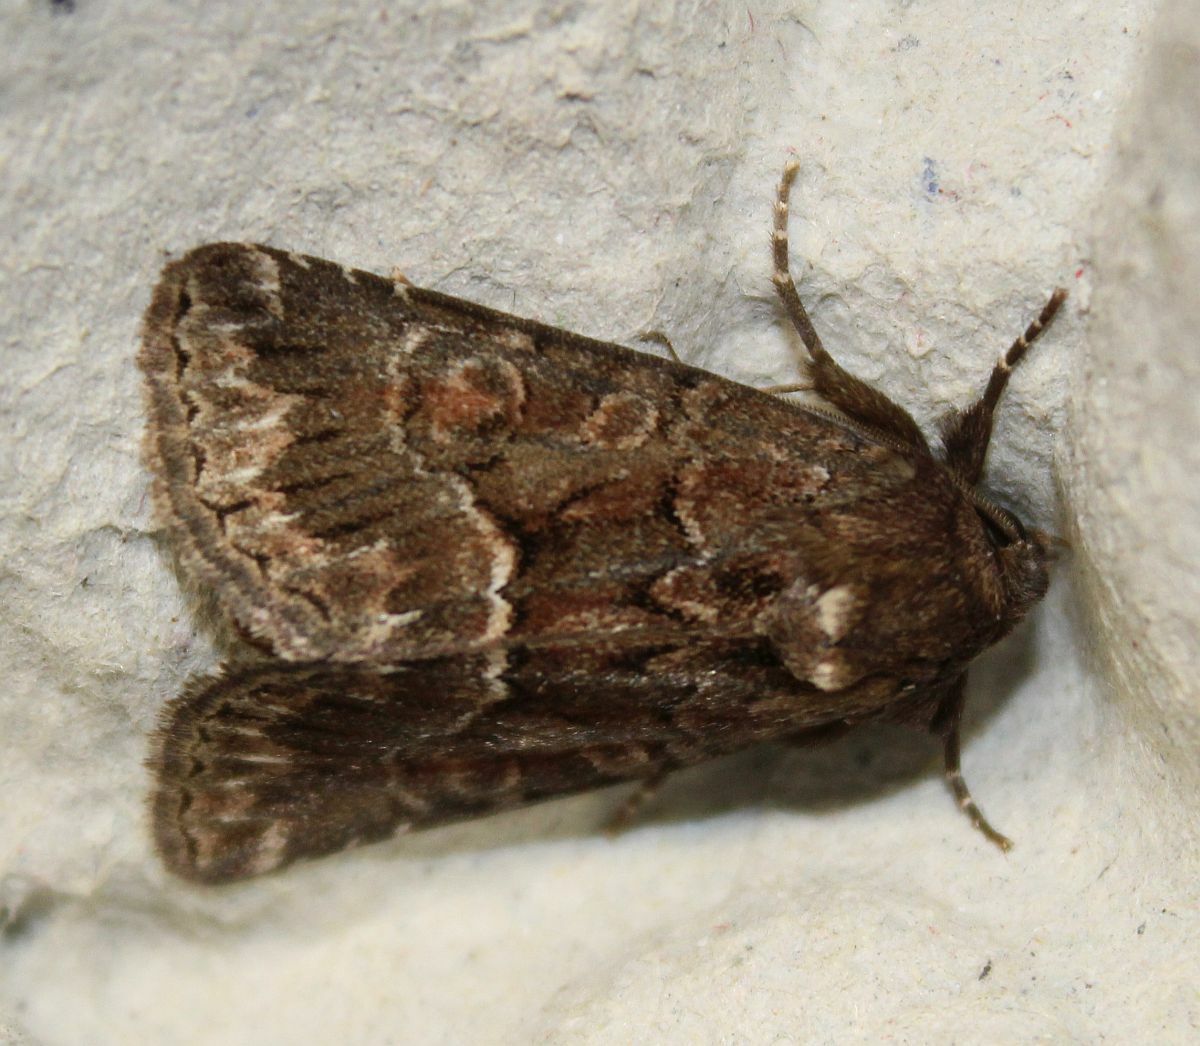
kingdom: Animalia
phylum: Arthropoda
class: Insecta
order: Lepidoptera
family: Noctuidae
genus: Thalpophila
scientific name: Thalpophila matura
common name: Straw underwing
